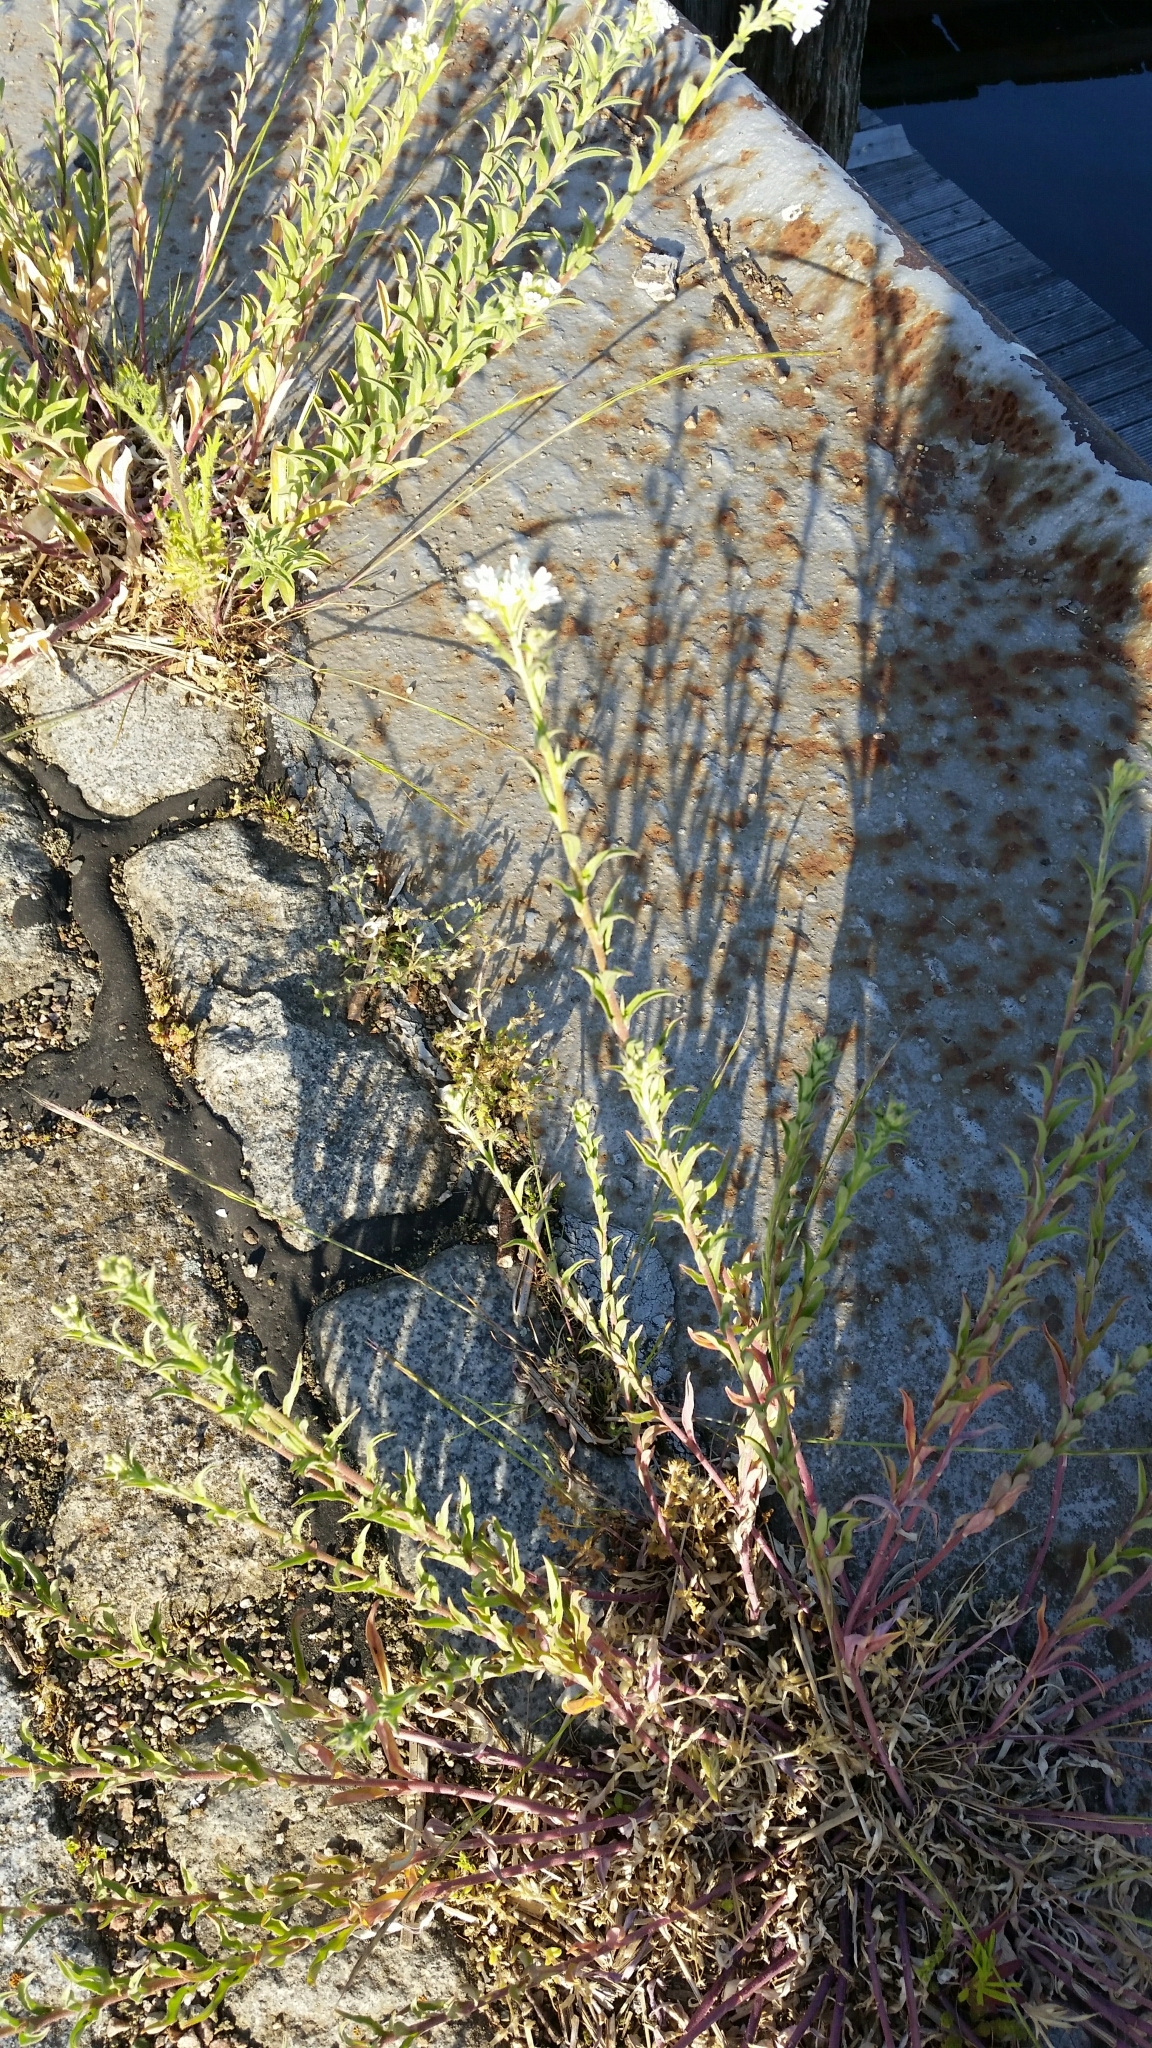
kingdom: Plantae
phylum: Tracheophyta
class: Magnoliopsida
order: Brassicales
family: Brassicaceae
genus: Berteroa
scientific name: Berteroa incana
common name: Hoary alison
